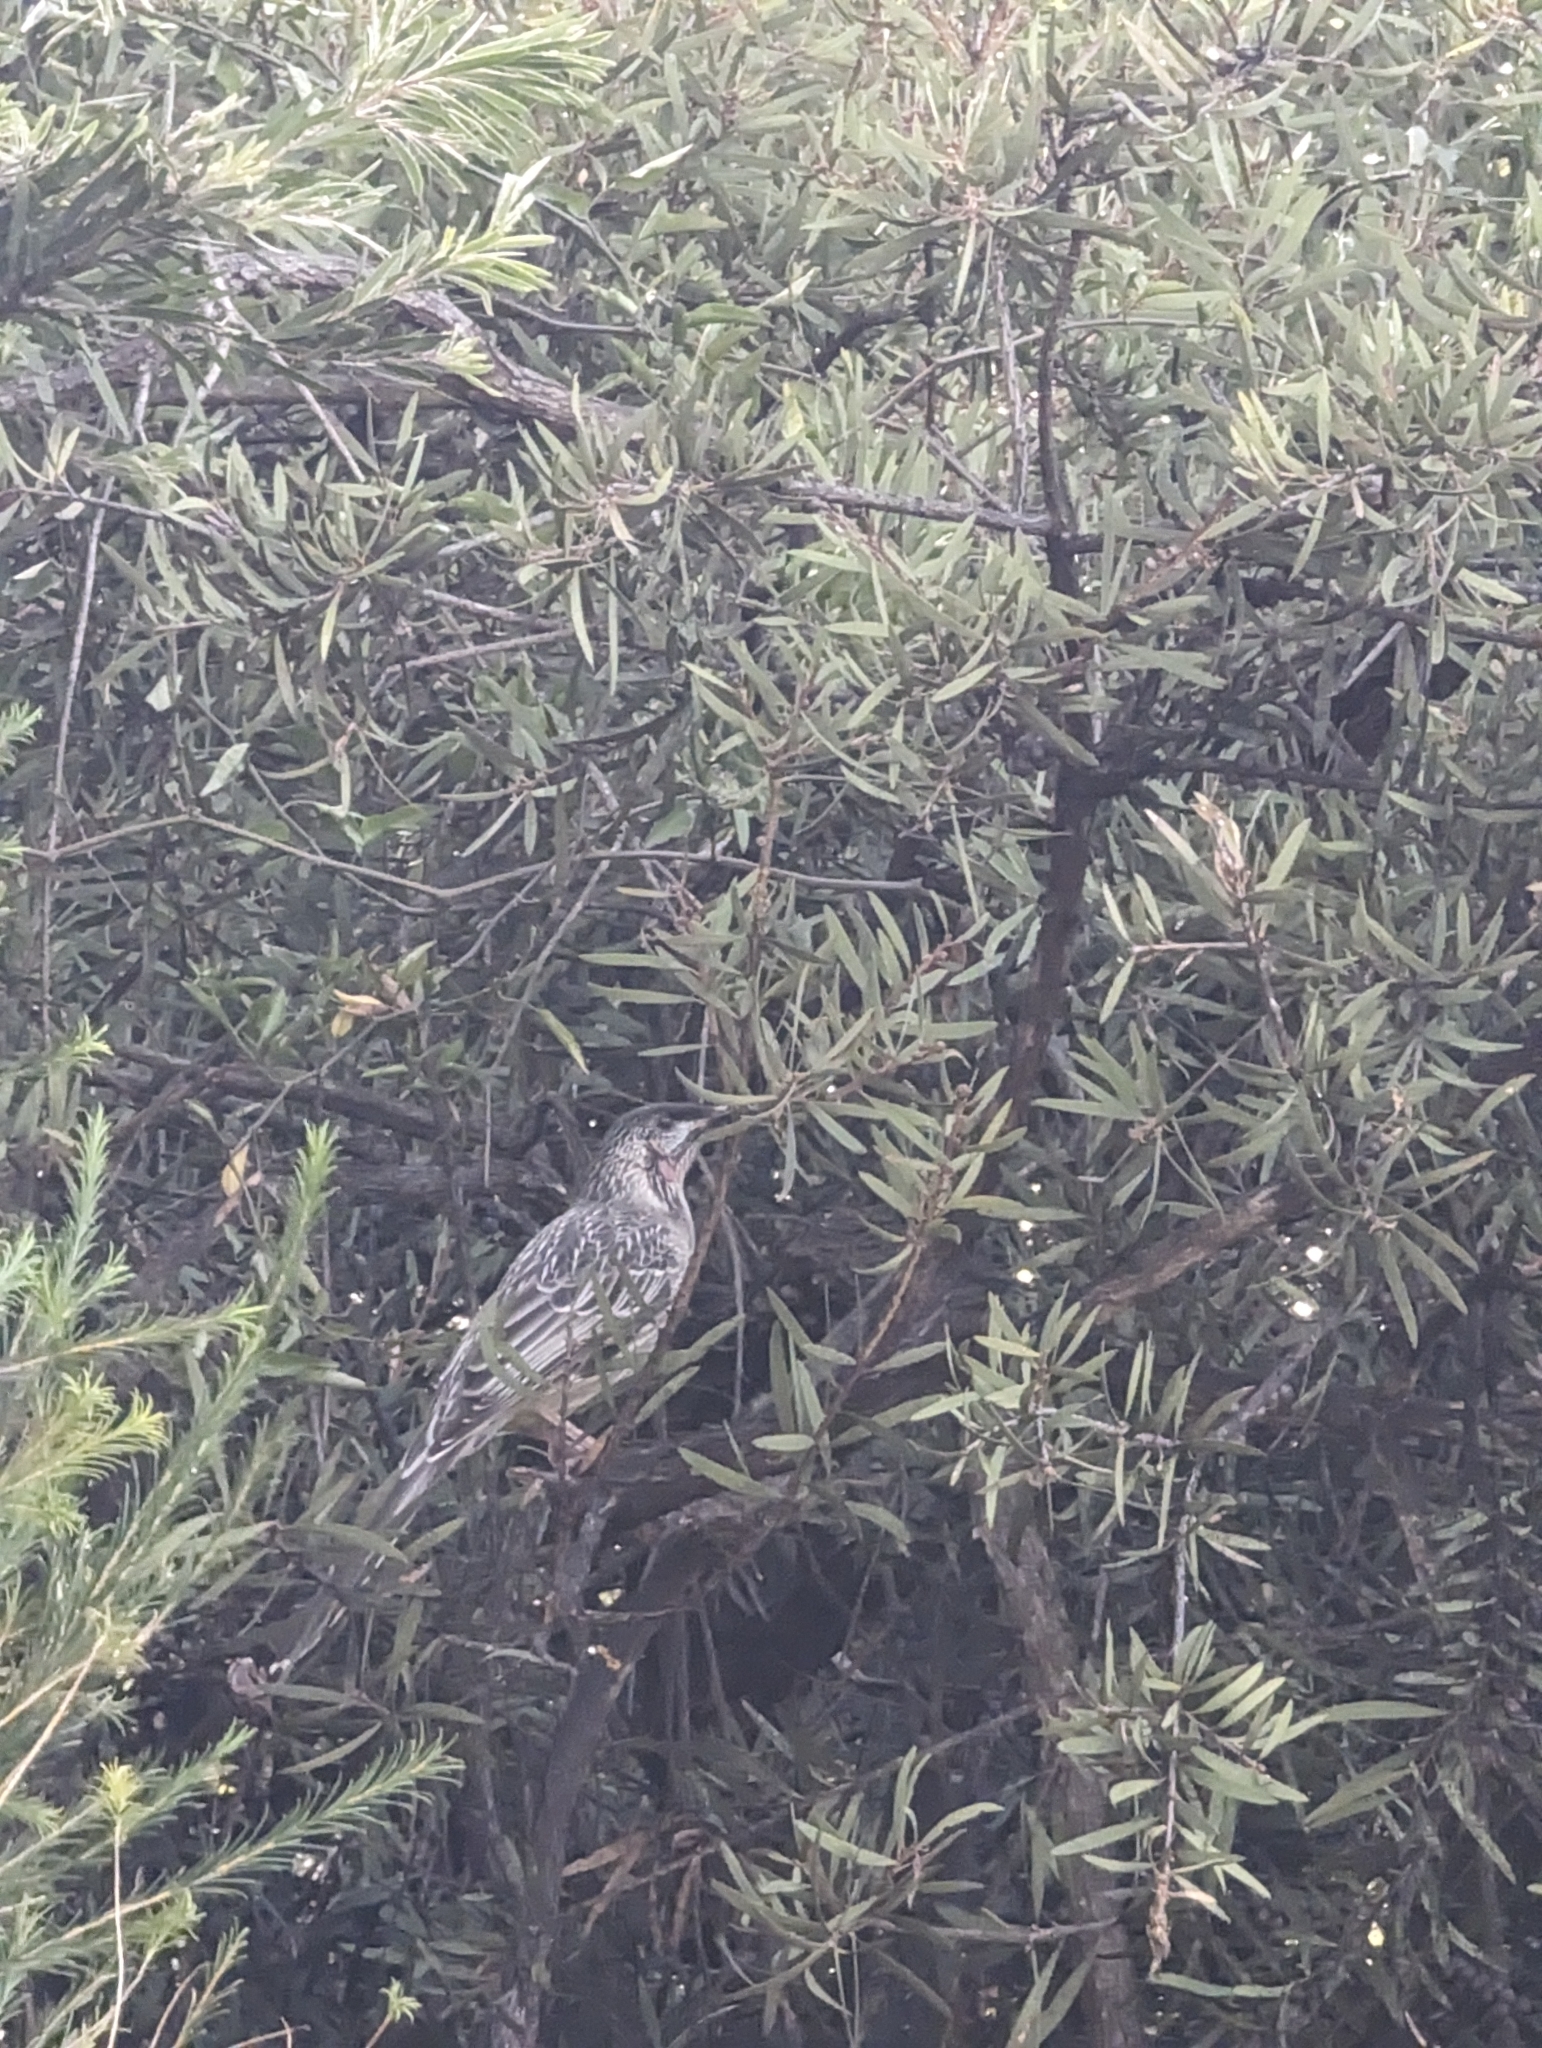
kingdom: Animalia
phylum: Chordata
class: Aves
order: Passeriformes
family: Meliphagidae
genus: Anthochaera
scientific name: Anthochaera carunculata
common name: Red wattlebird
